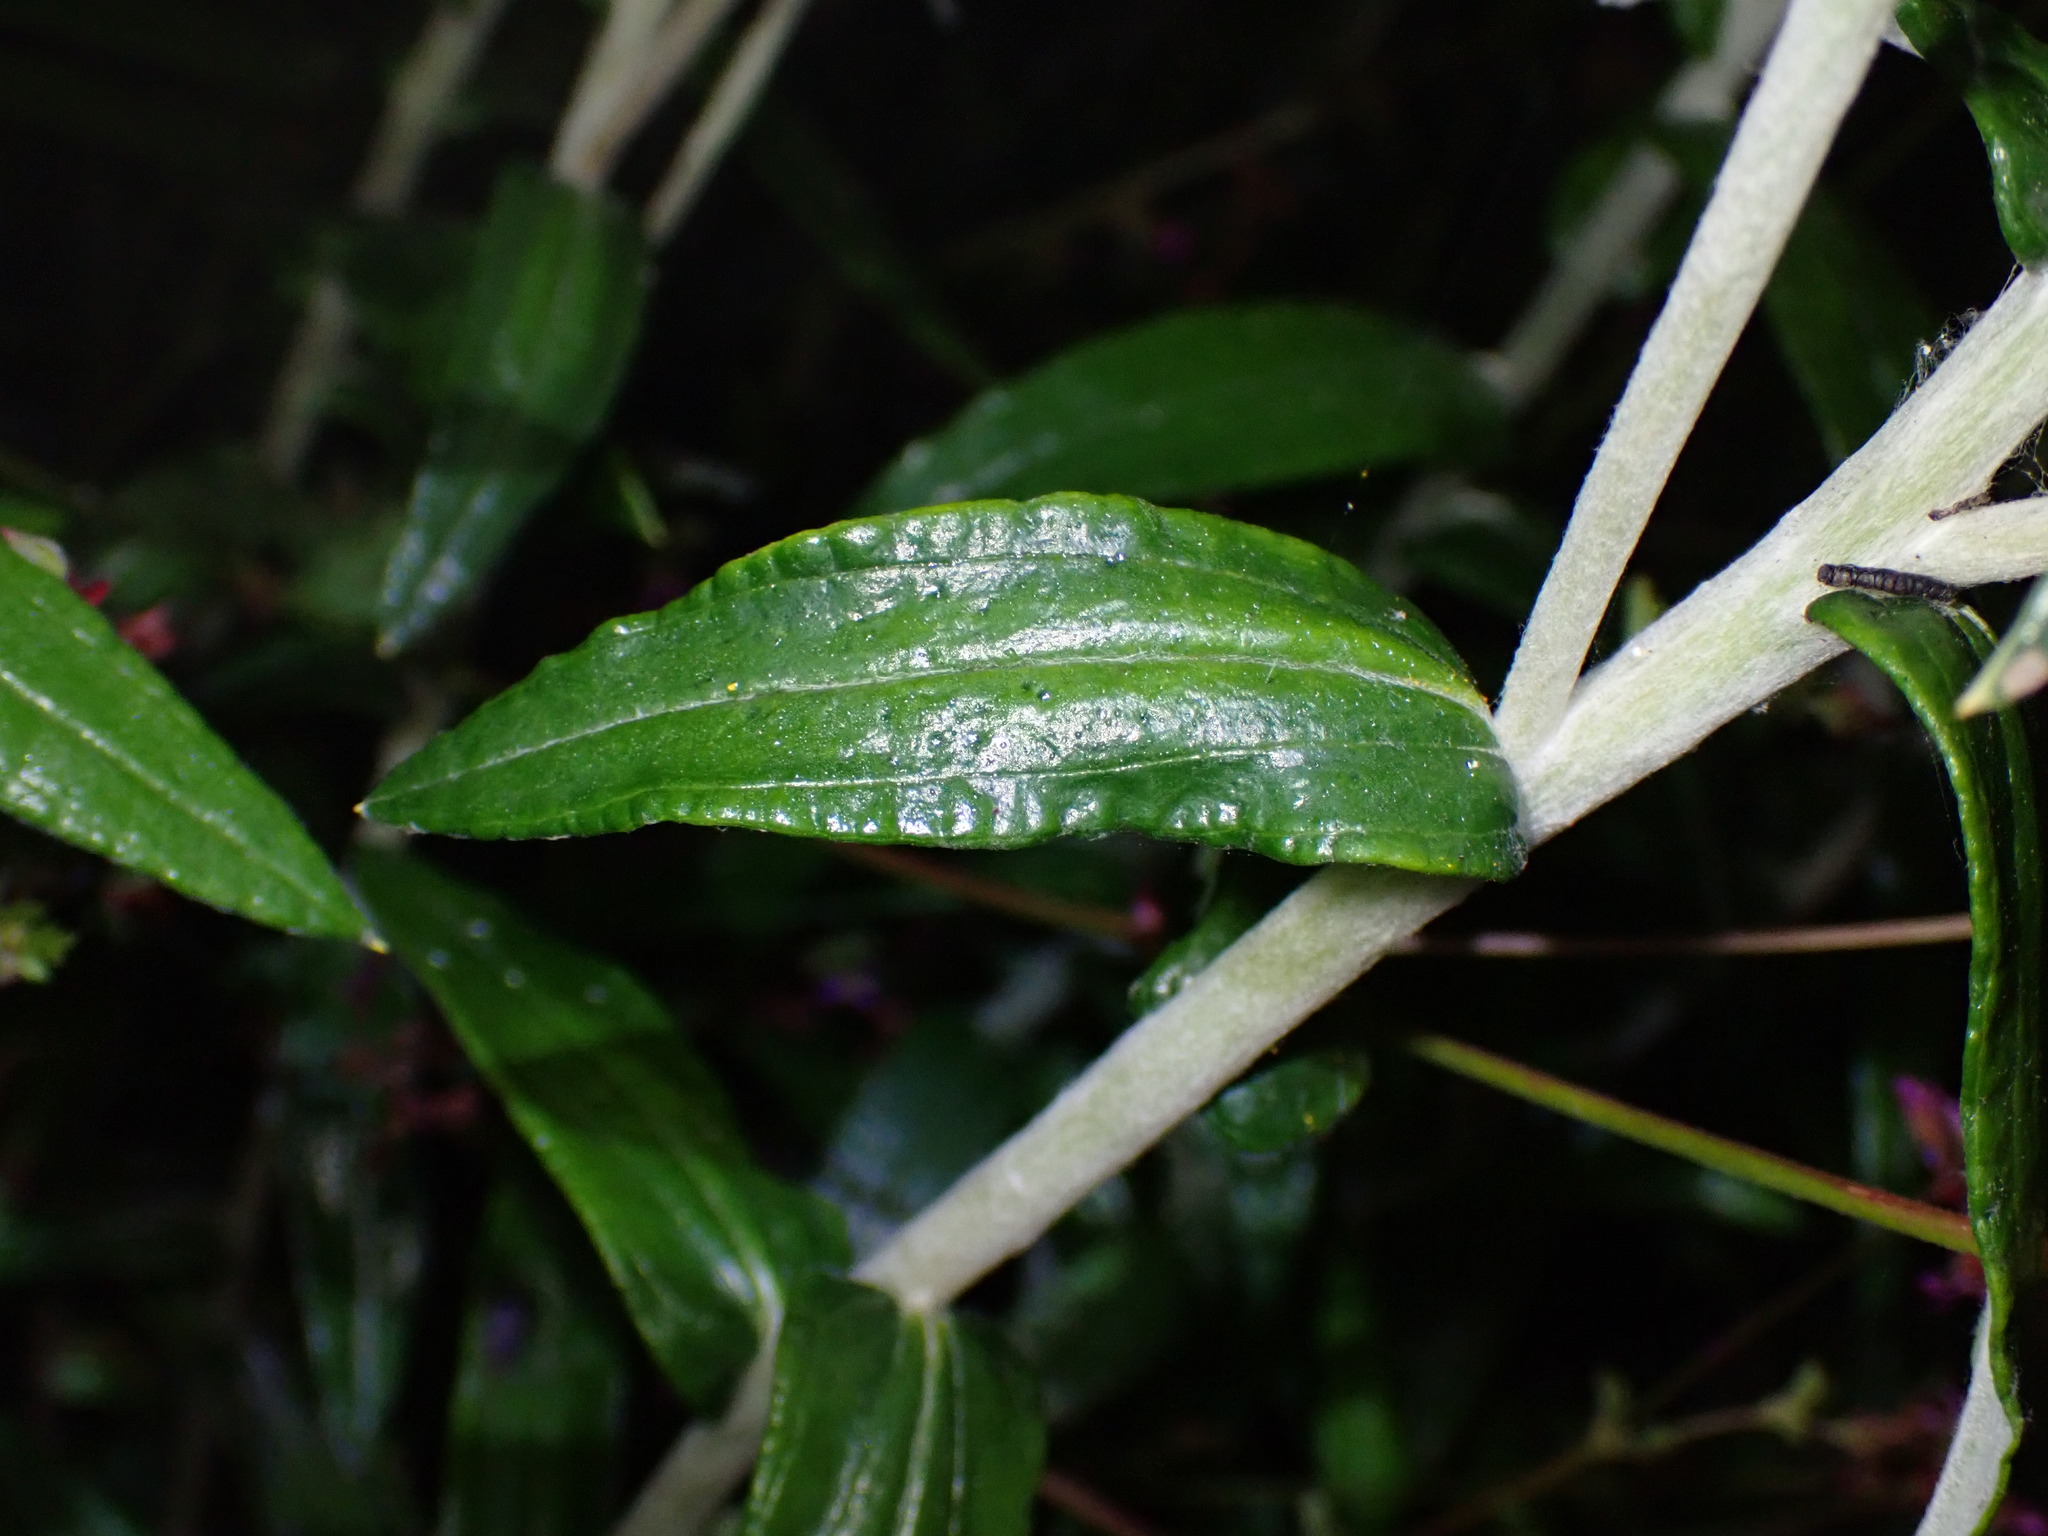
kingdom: Plantae
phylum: Tracheophyta
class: Magnoliopsida
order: Asterales
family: Asteraceae
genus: Anaphalis
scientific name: Anaphalis margaritacea
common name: Pearly everlasting
